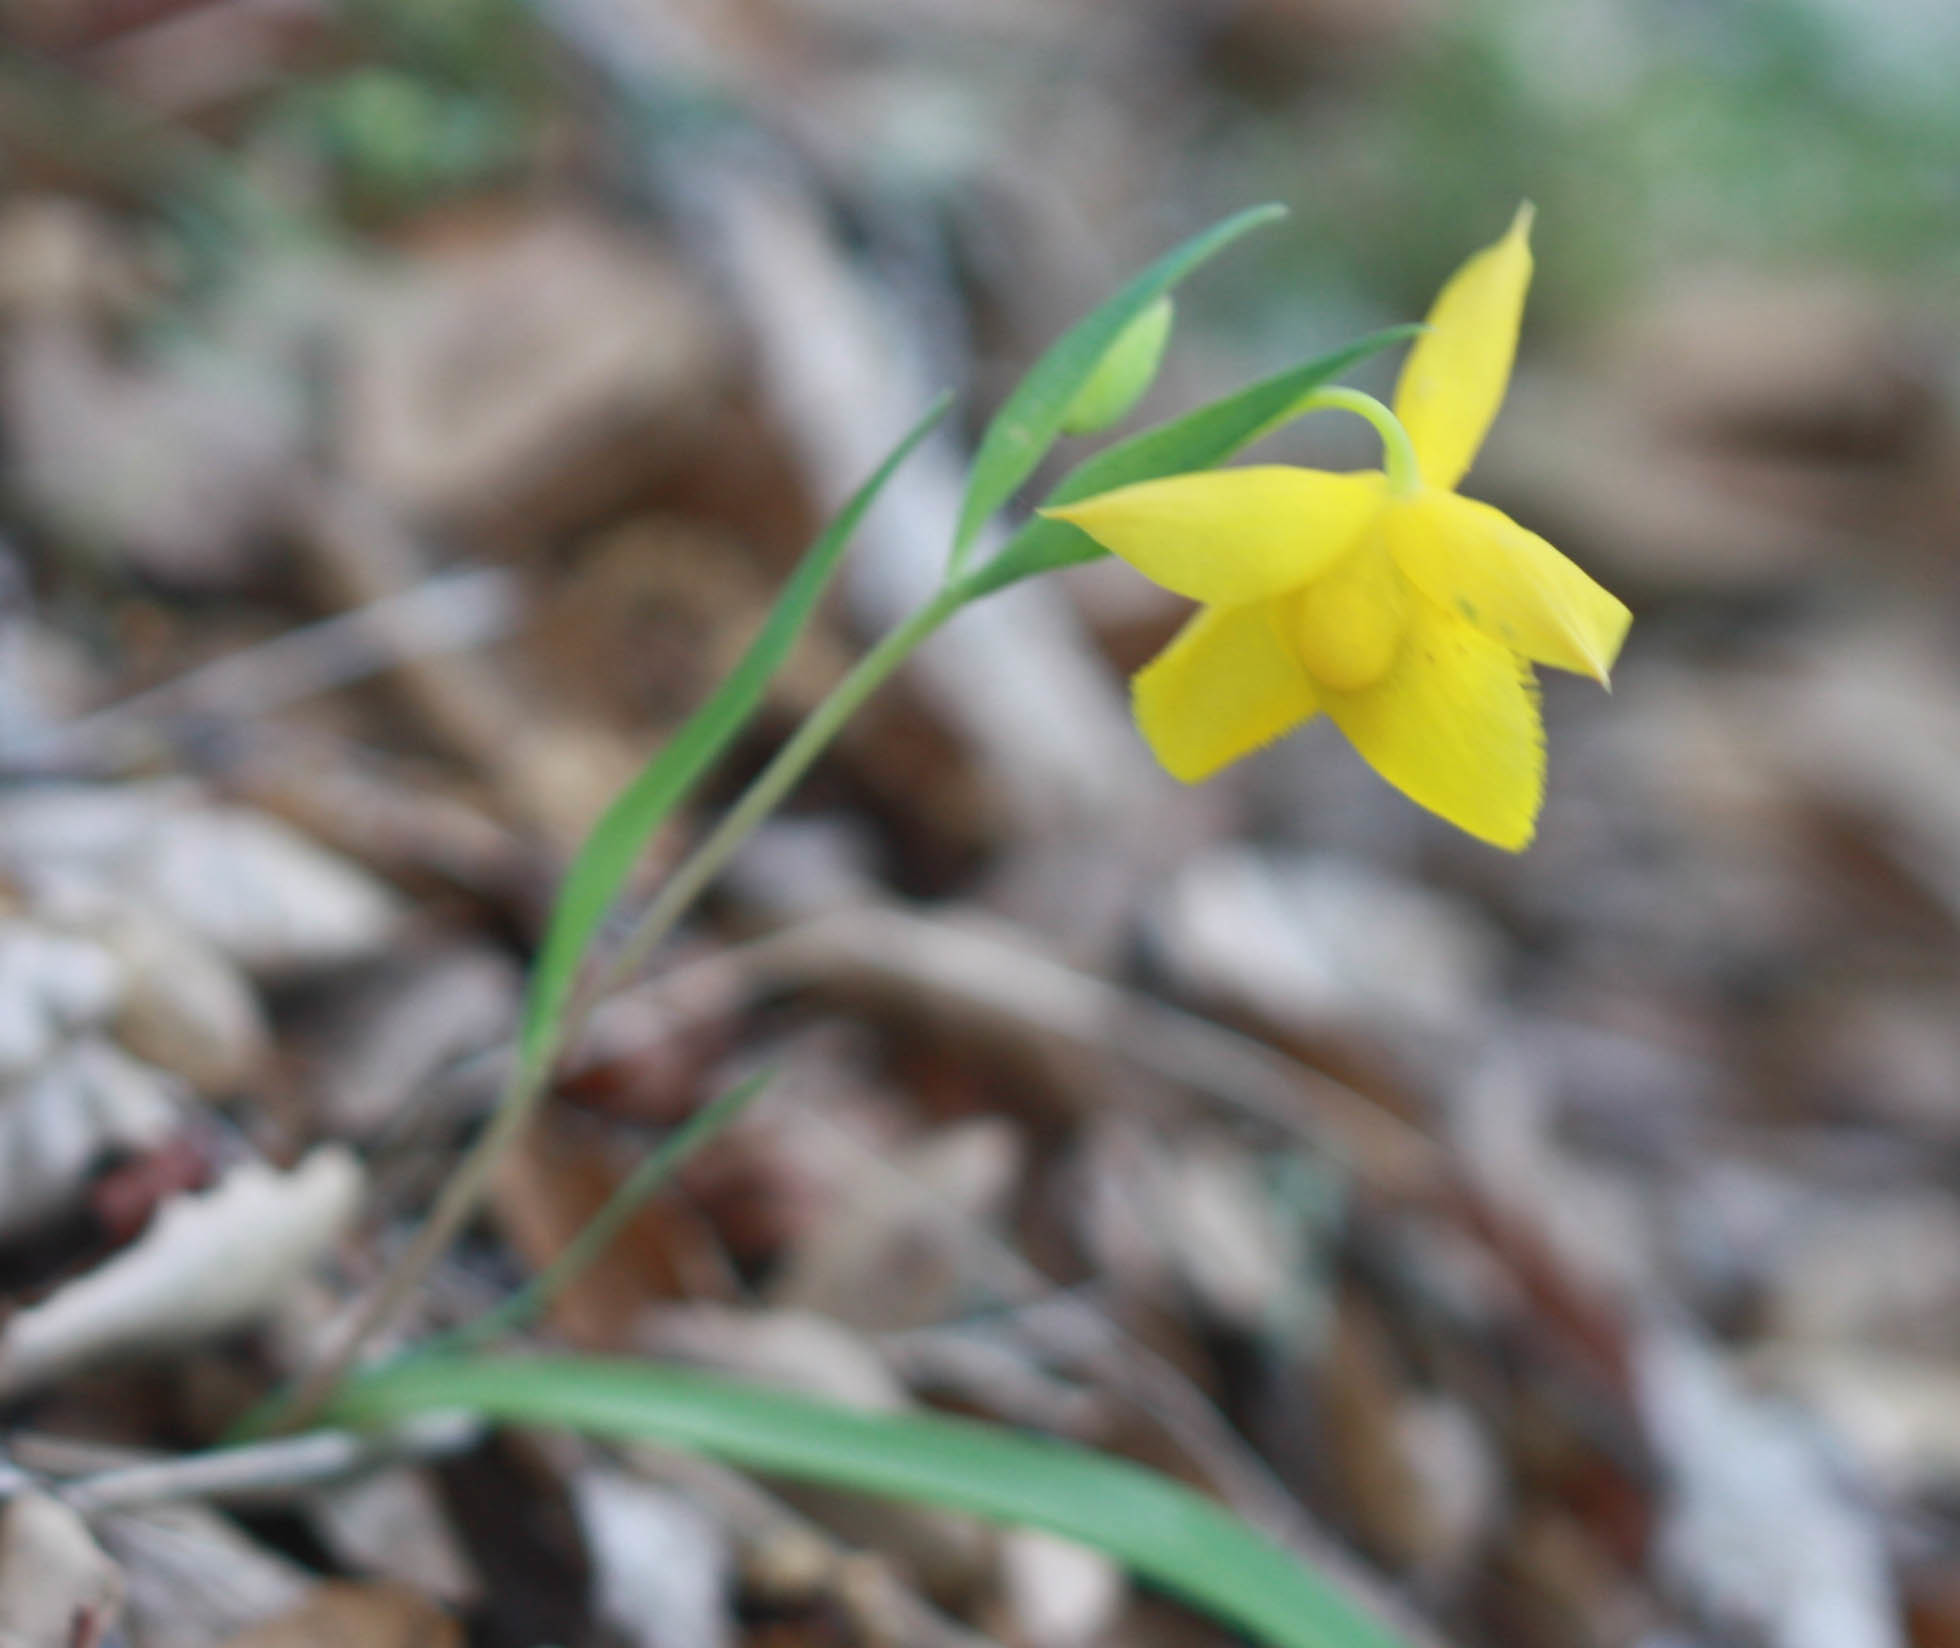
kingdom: Plantae
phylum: Tracheophyta
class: Liliopsida
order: Liliales
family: Liliaceae
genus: Calochortus
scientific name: Calochortus amabilis
